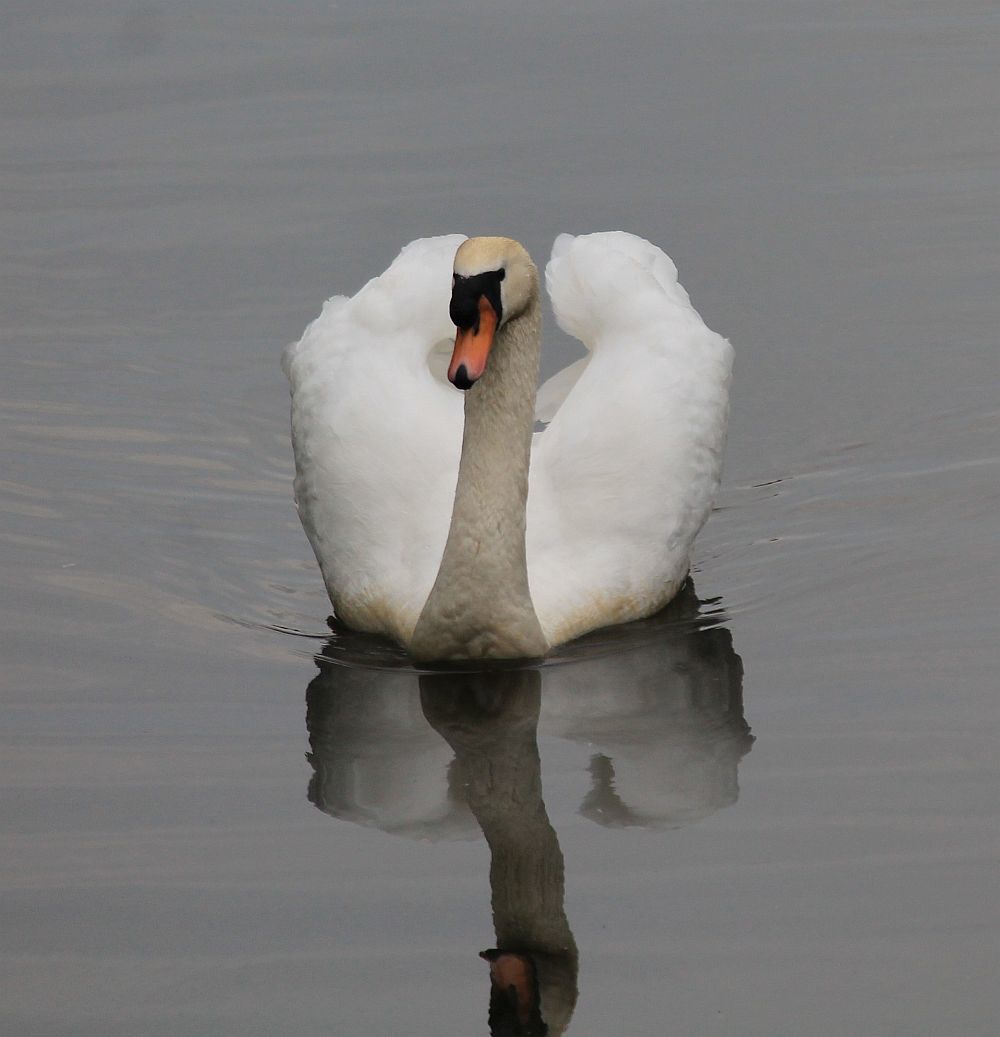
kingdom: Animalia
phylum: Chordata
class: Aves
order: Anseriformes
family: Anatidae
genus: Cygnus
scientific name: Cygnus olor
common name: Mute swan
